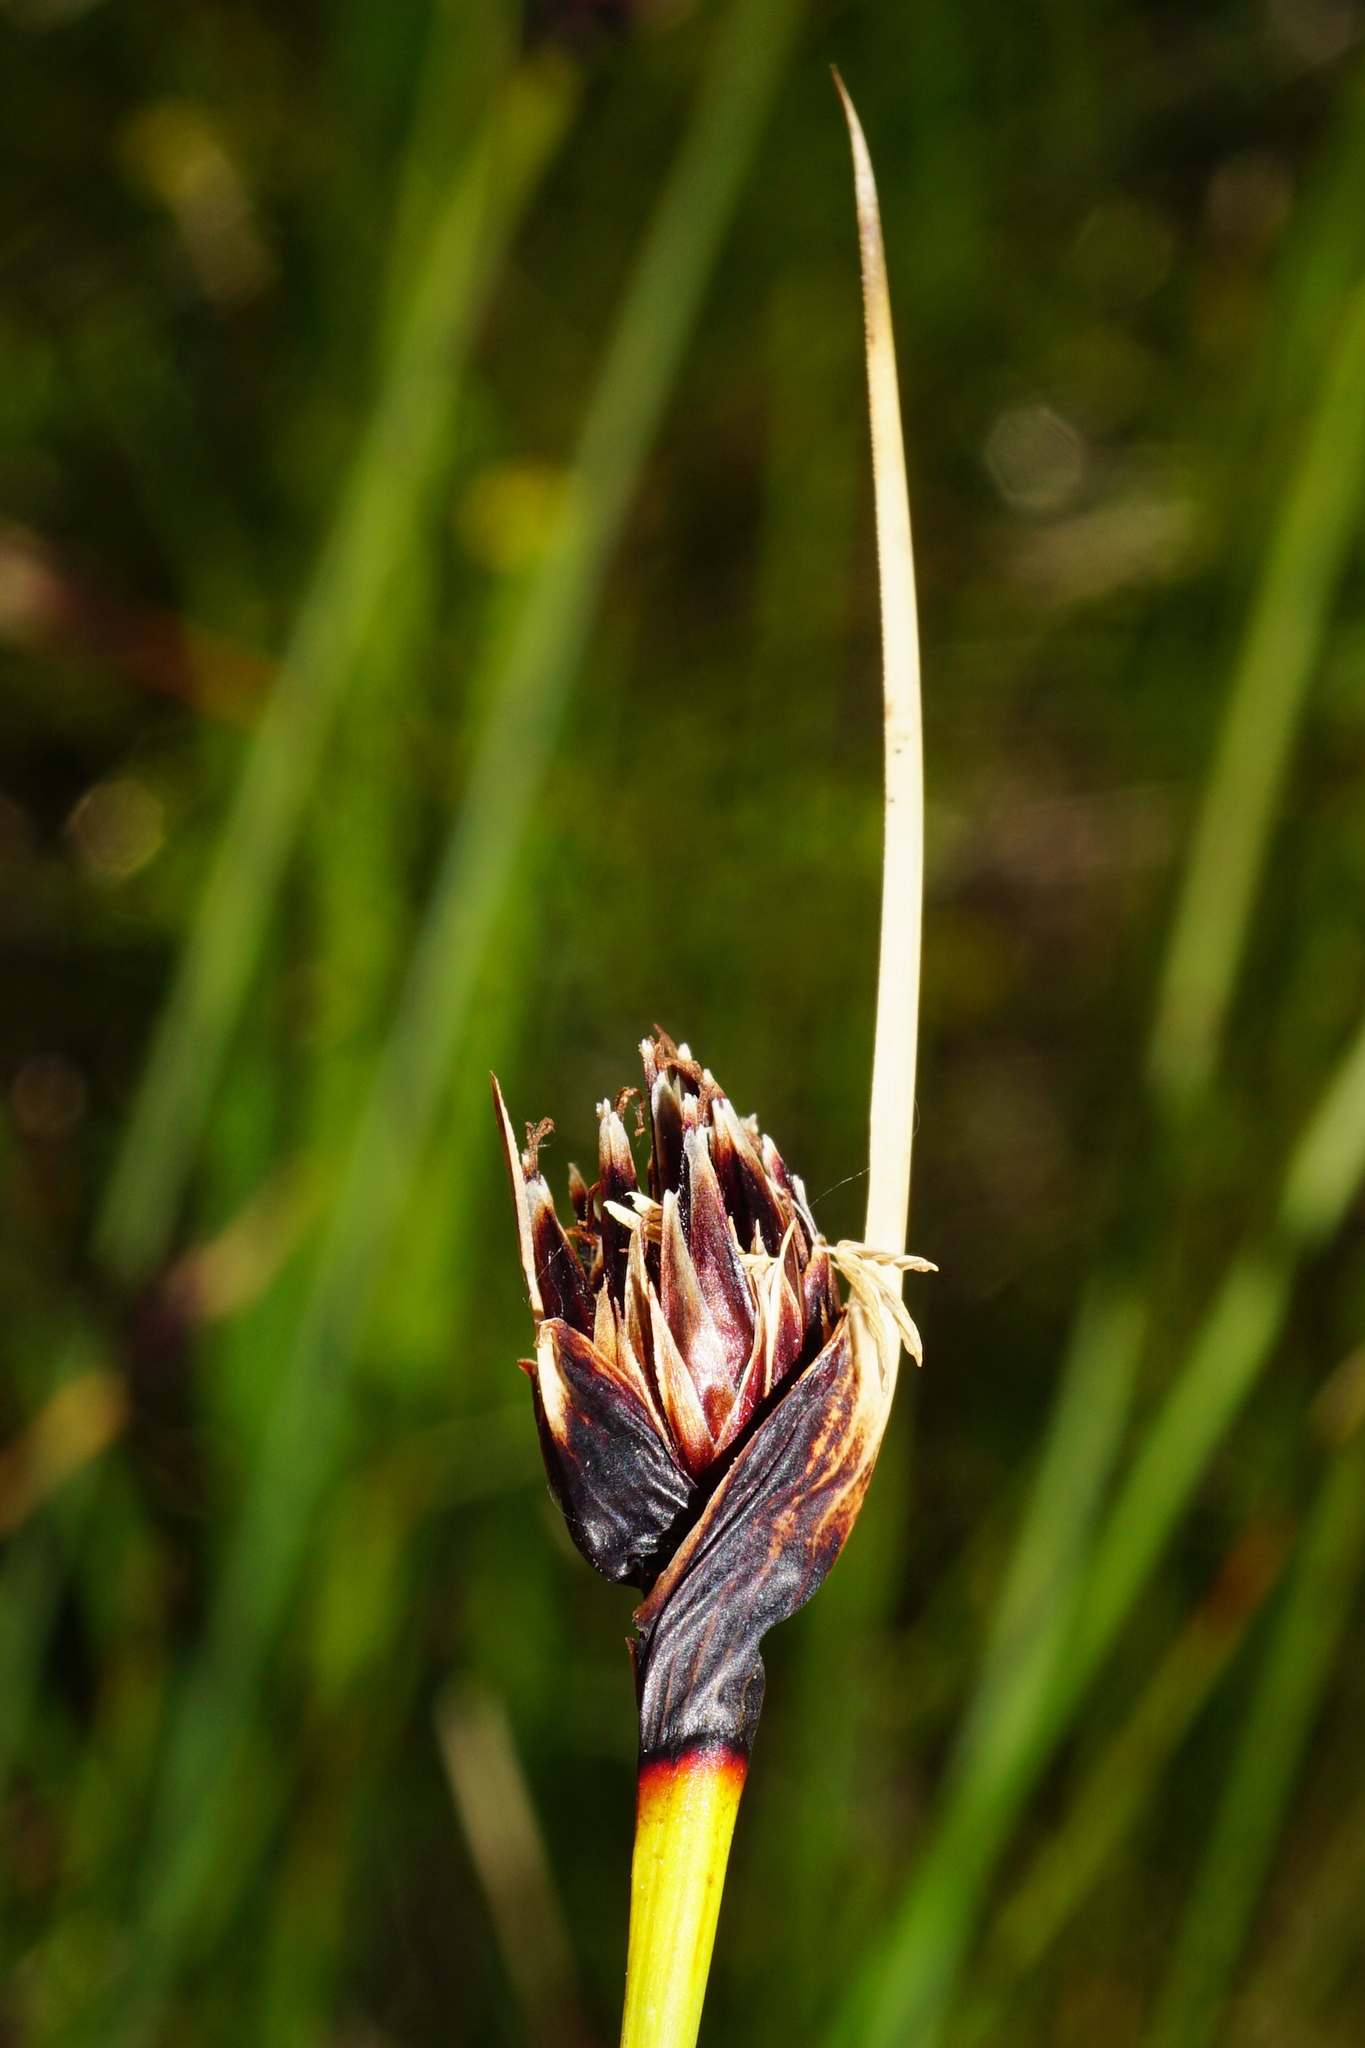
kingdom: Plantae
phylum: Tracheophyta
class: Liliopsida
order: Poales
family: Cyperaceae
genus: Schoenus
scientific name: Schoenus nigricans
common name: Black bog-rush
